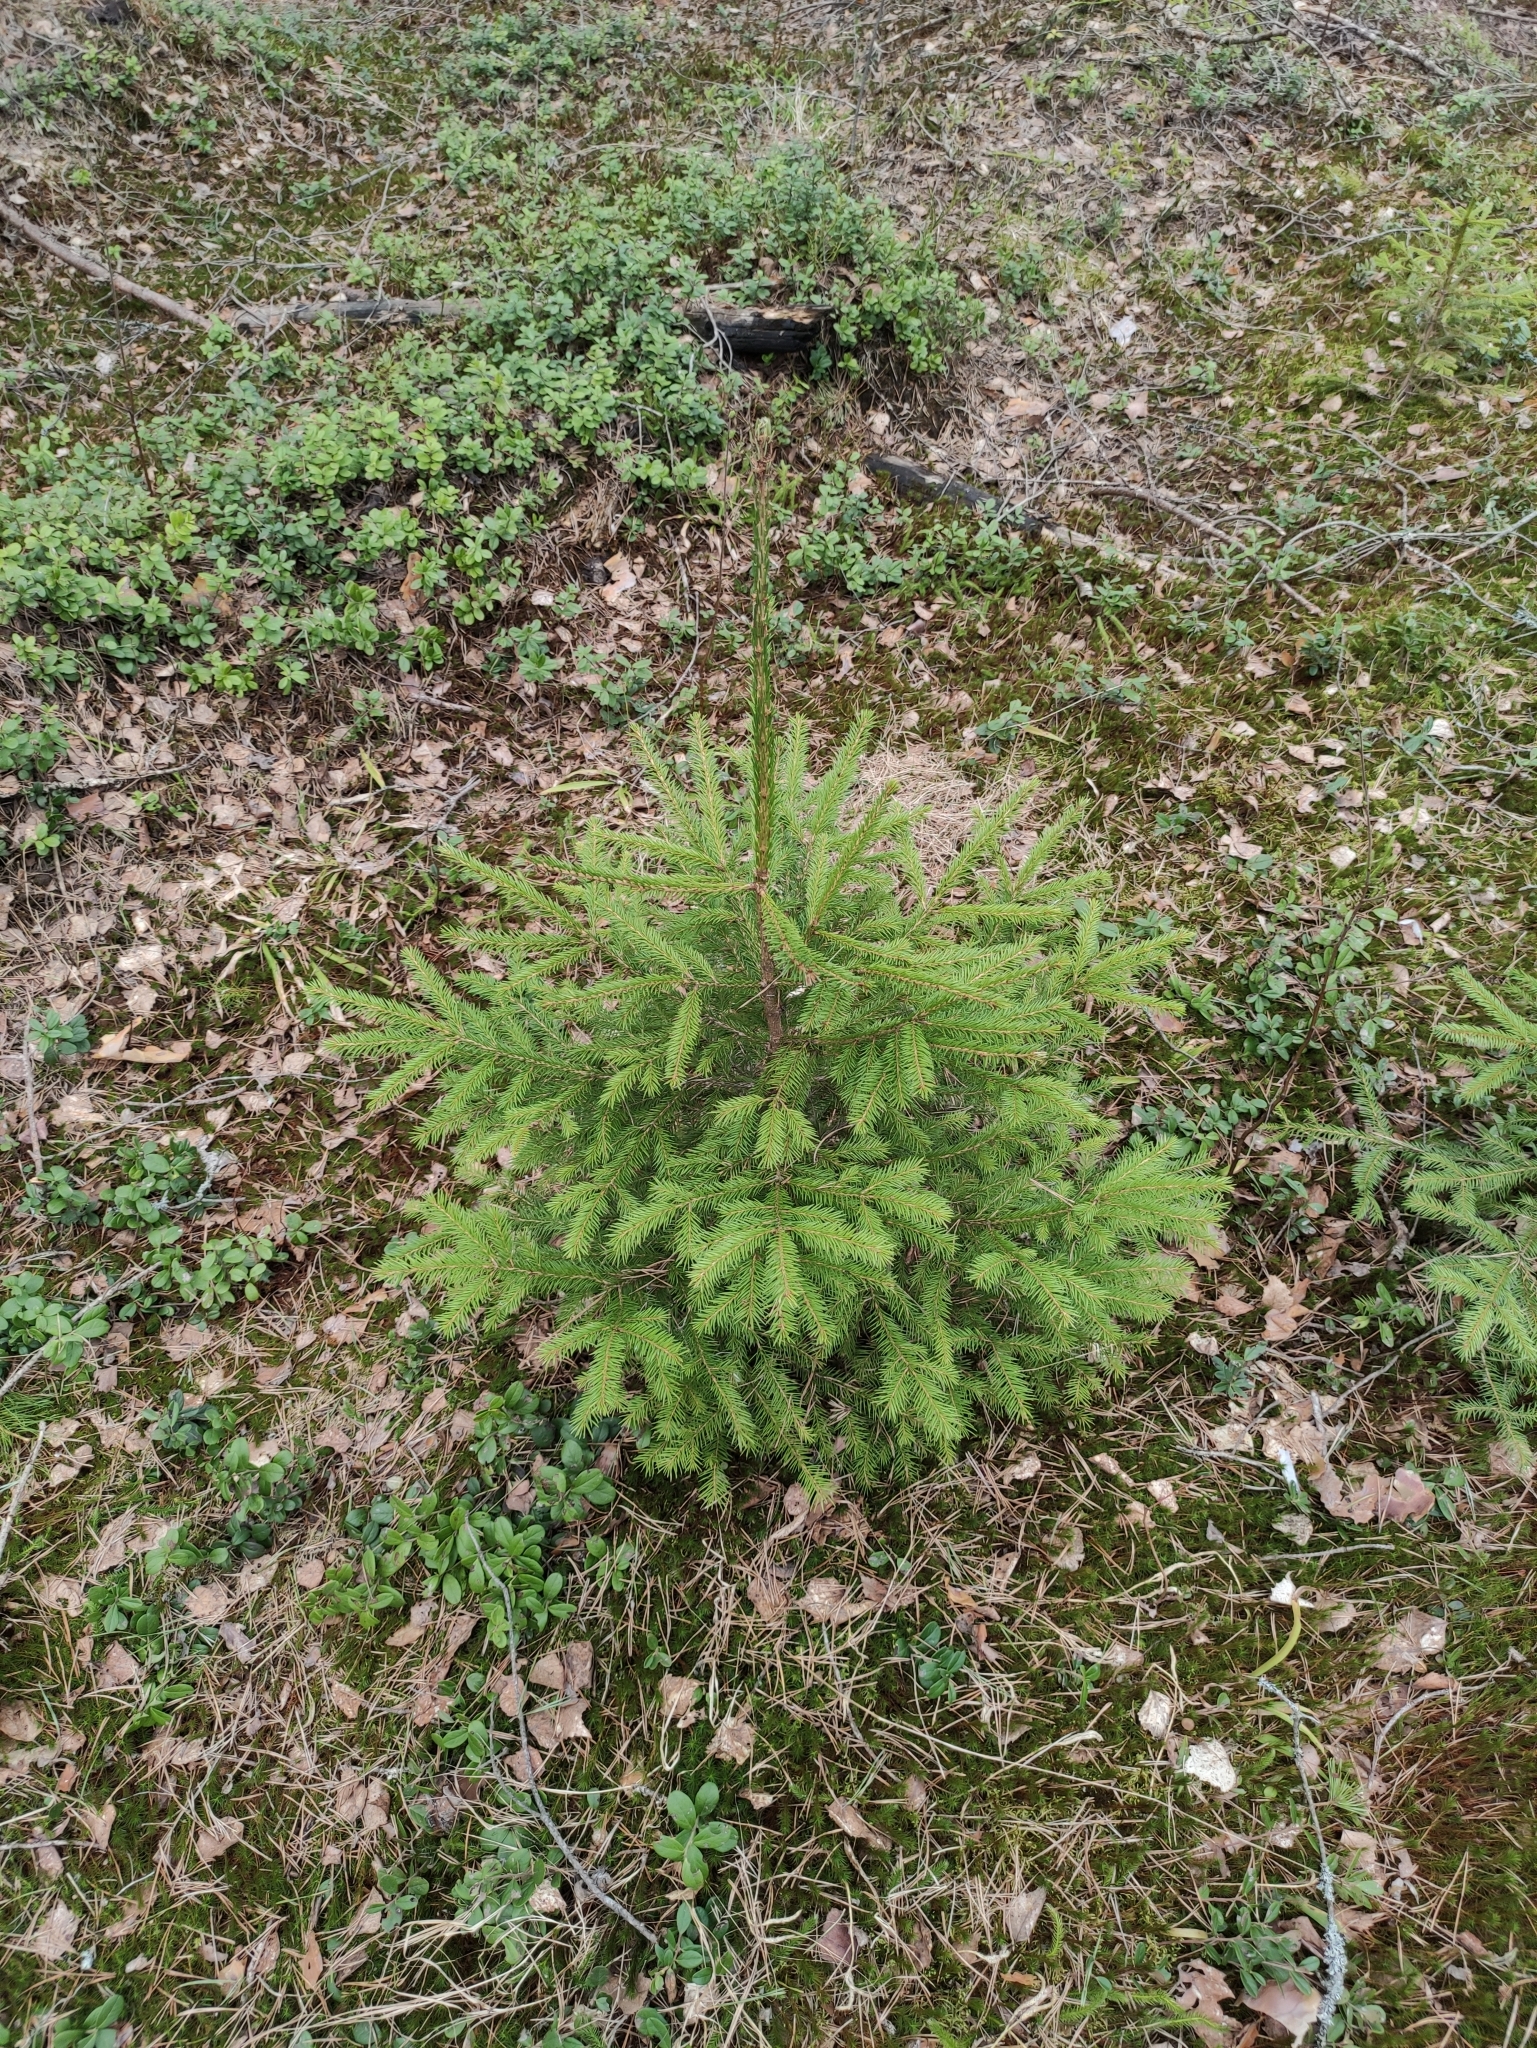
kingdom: Plantae
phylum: Tracheophyta
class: Pinopsida
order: Pinales
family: Pinaceae
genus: Picea
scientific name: Picea abies
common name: Norway spruce
